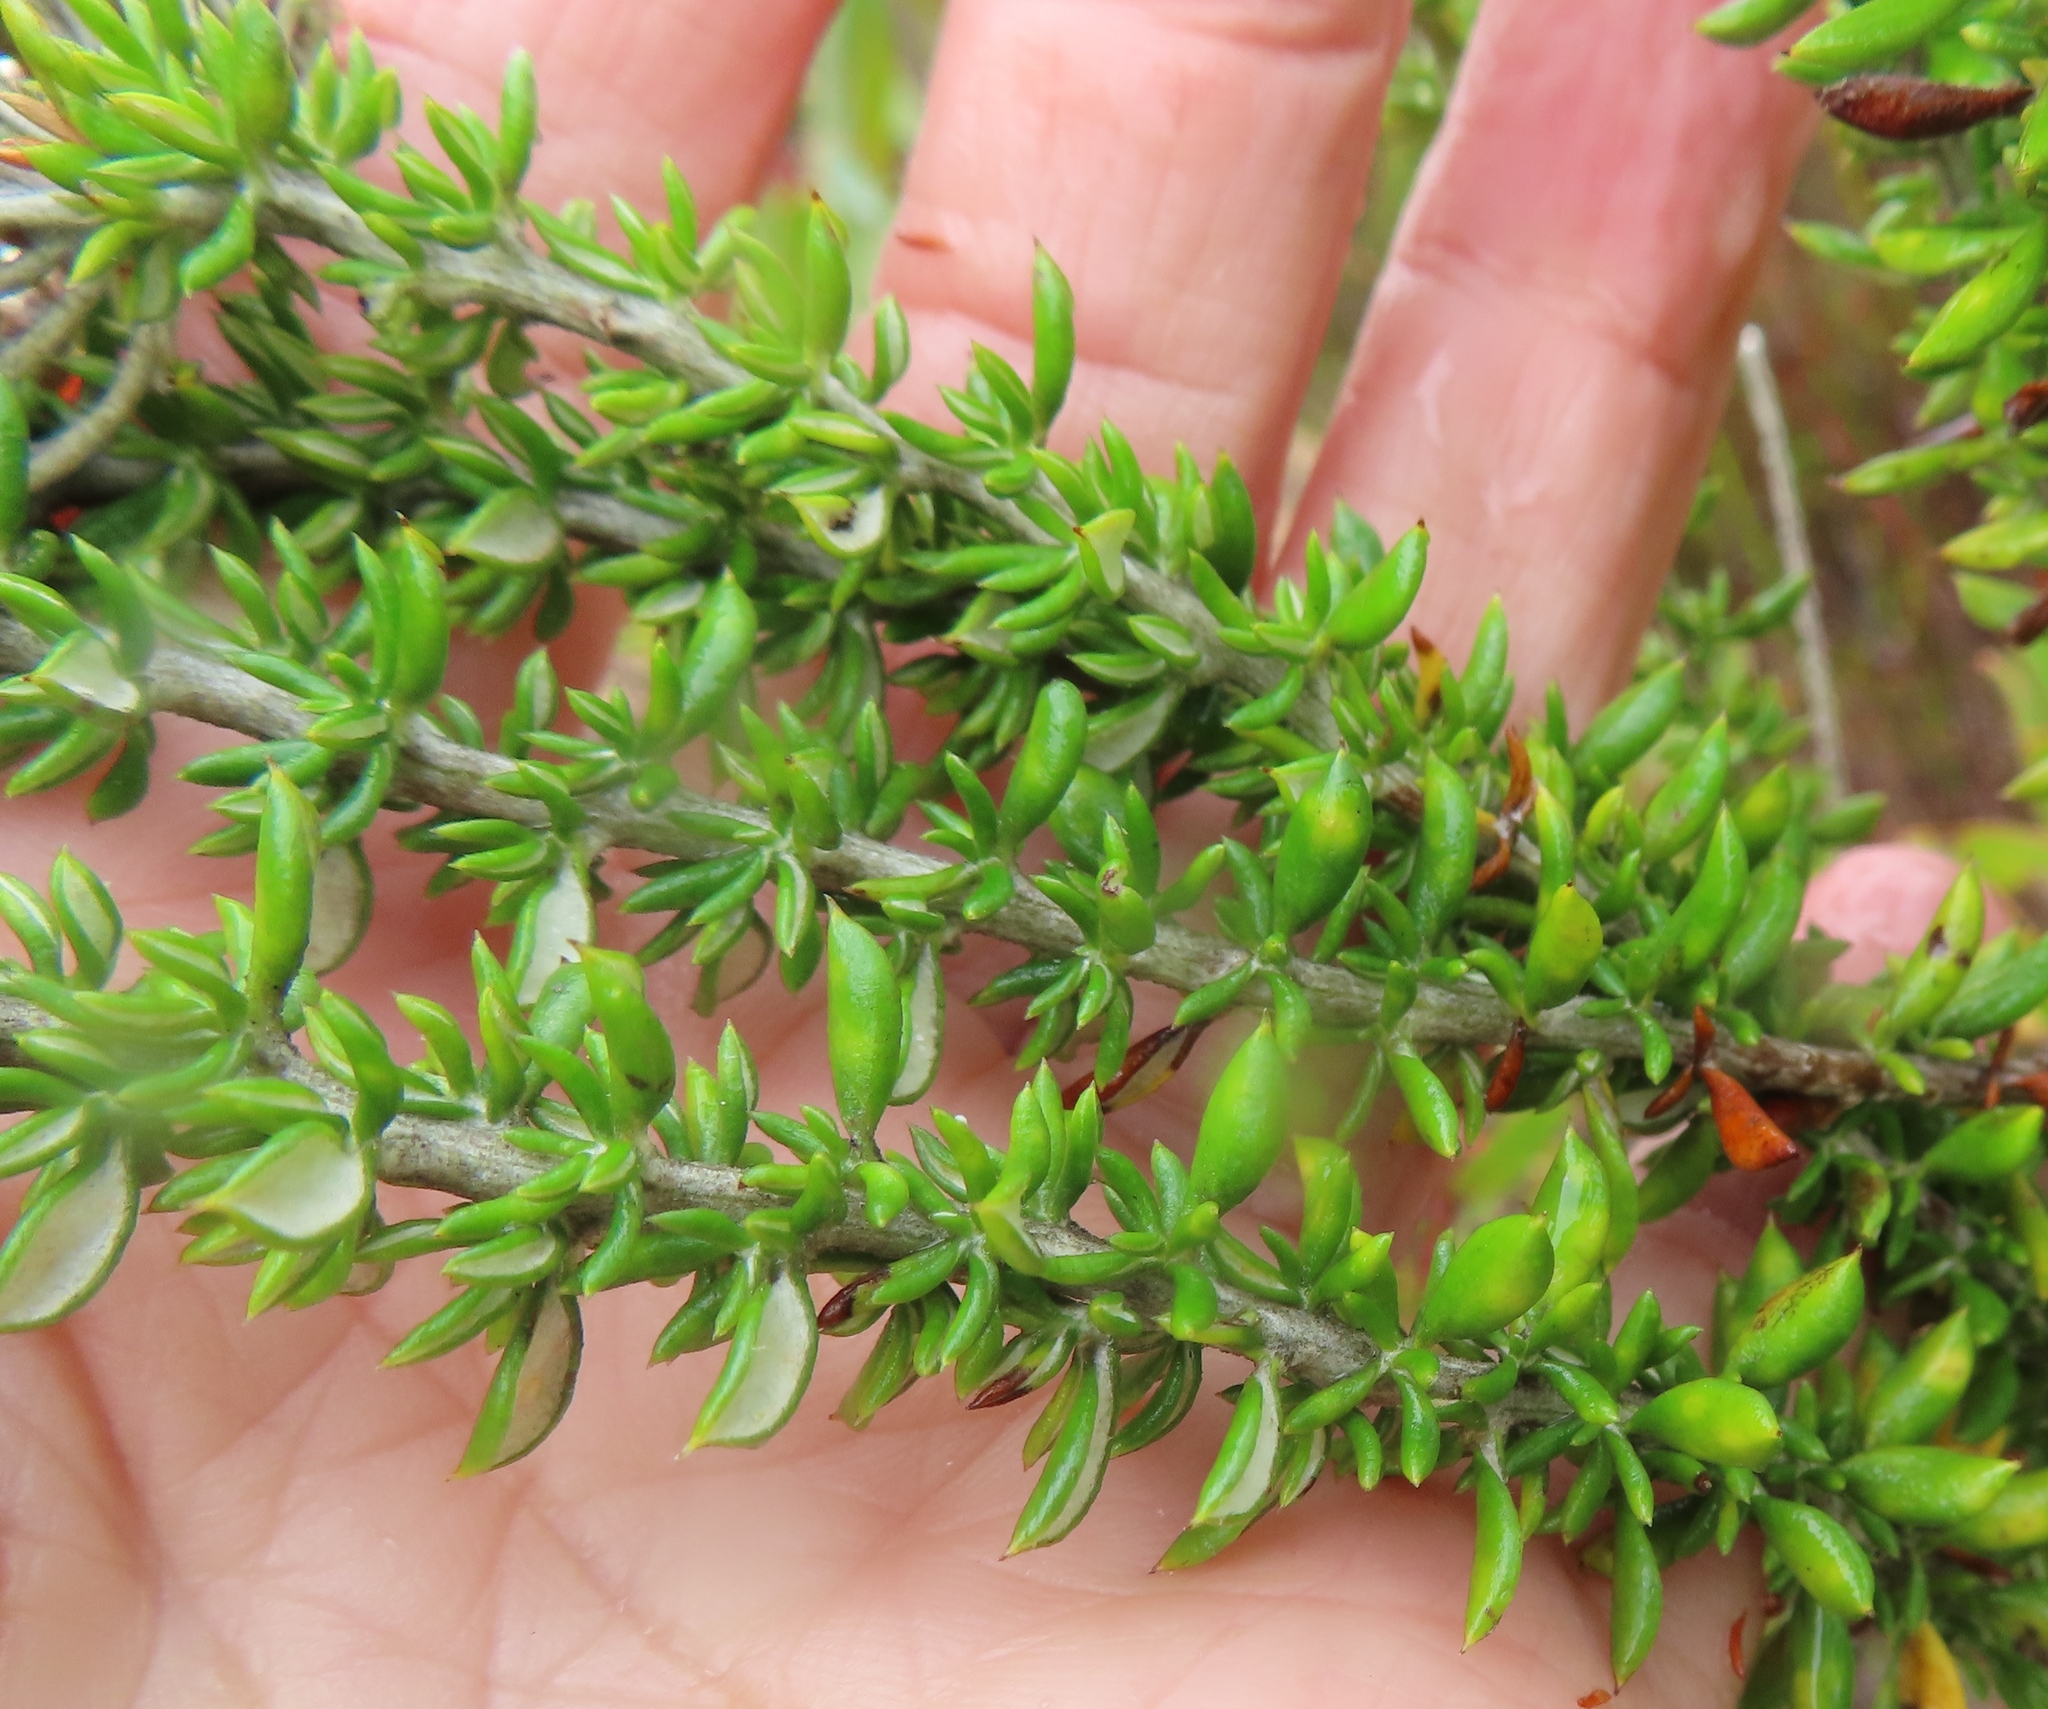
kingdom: Plantae
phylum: Tracheophyta
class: Magnoliopsida
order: Asterales
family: Asteraceae
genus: Metalasia
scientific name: Metalasia densa
